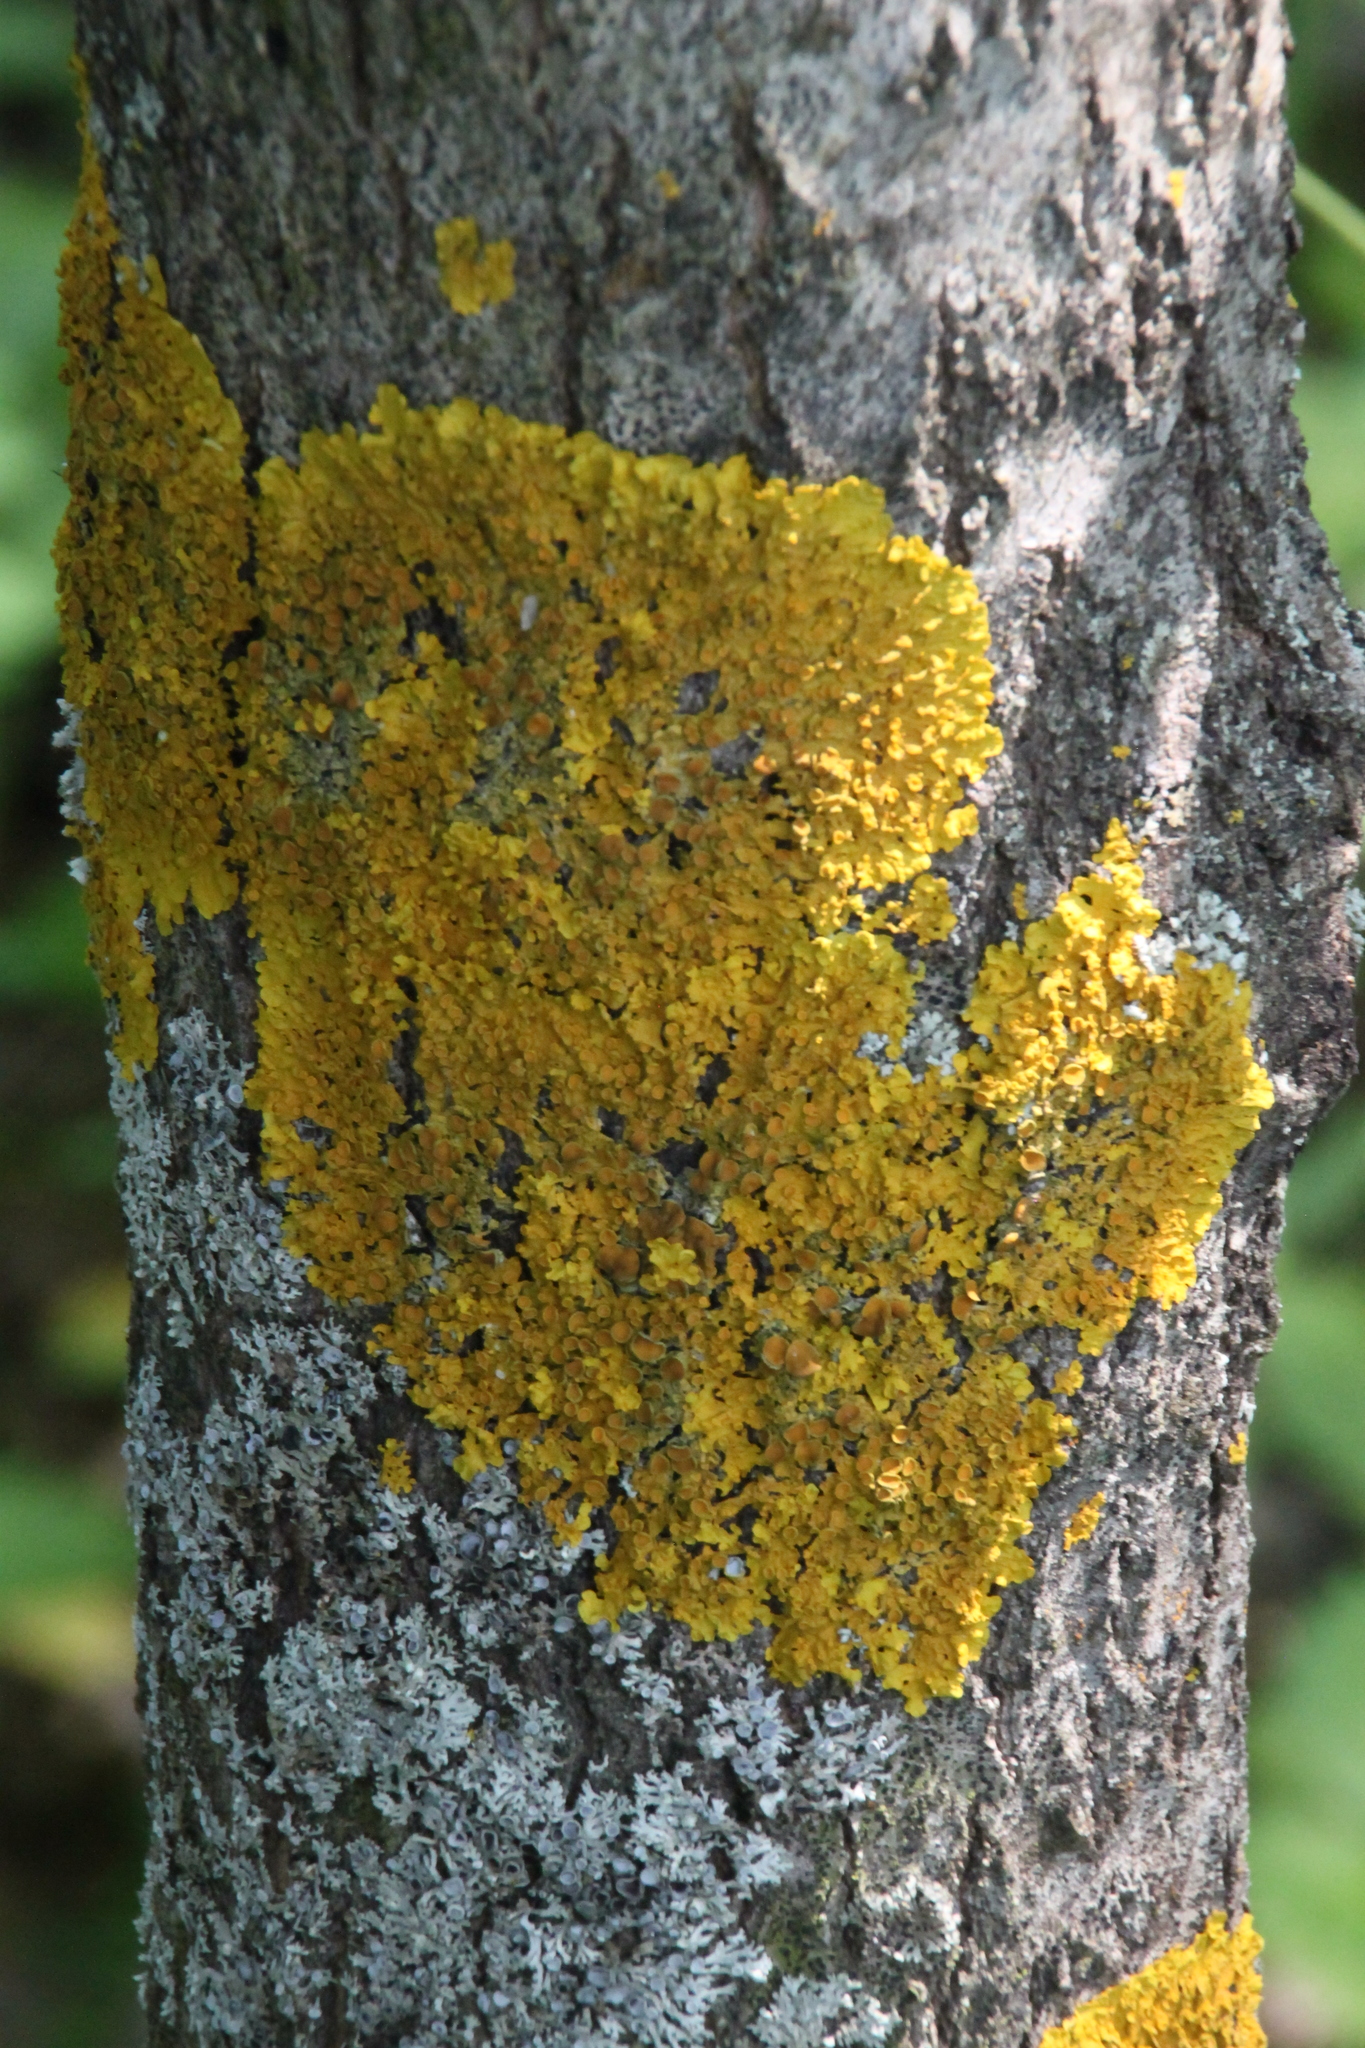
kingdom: Fungi
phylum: Ascomycota
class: Lecanoromycetes
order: Teloschistales
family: Teloschistaceae
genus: Xanthoria
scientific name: Xanthoria parietina
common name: Common orange lichen
